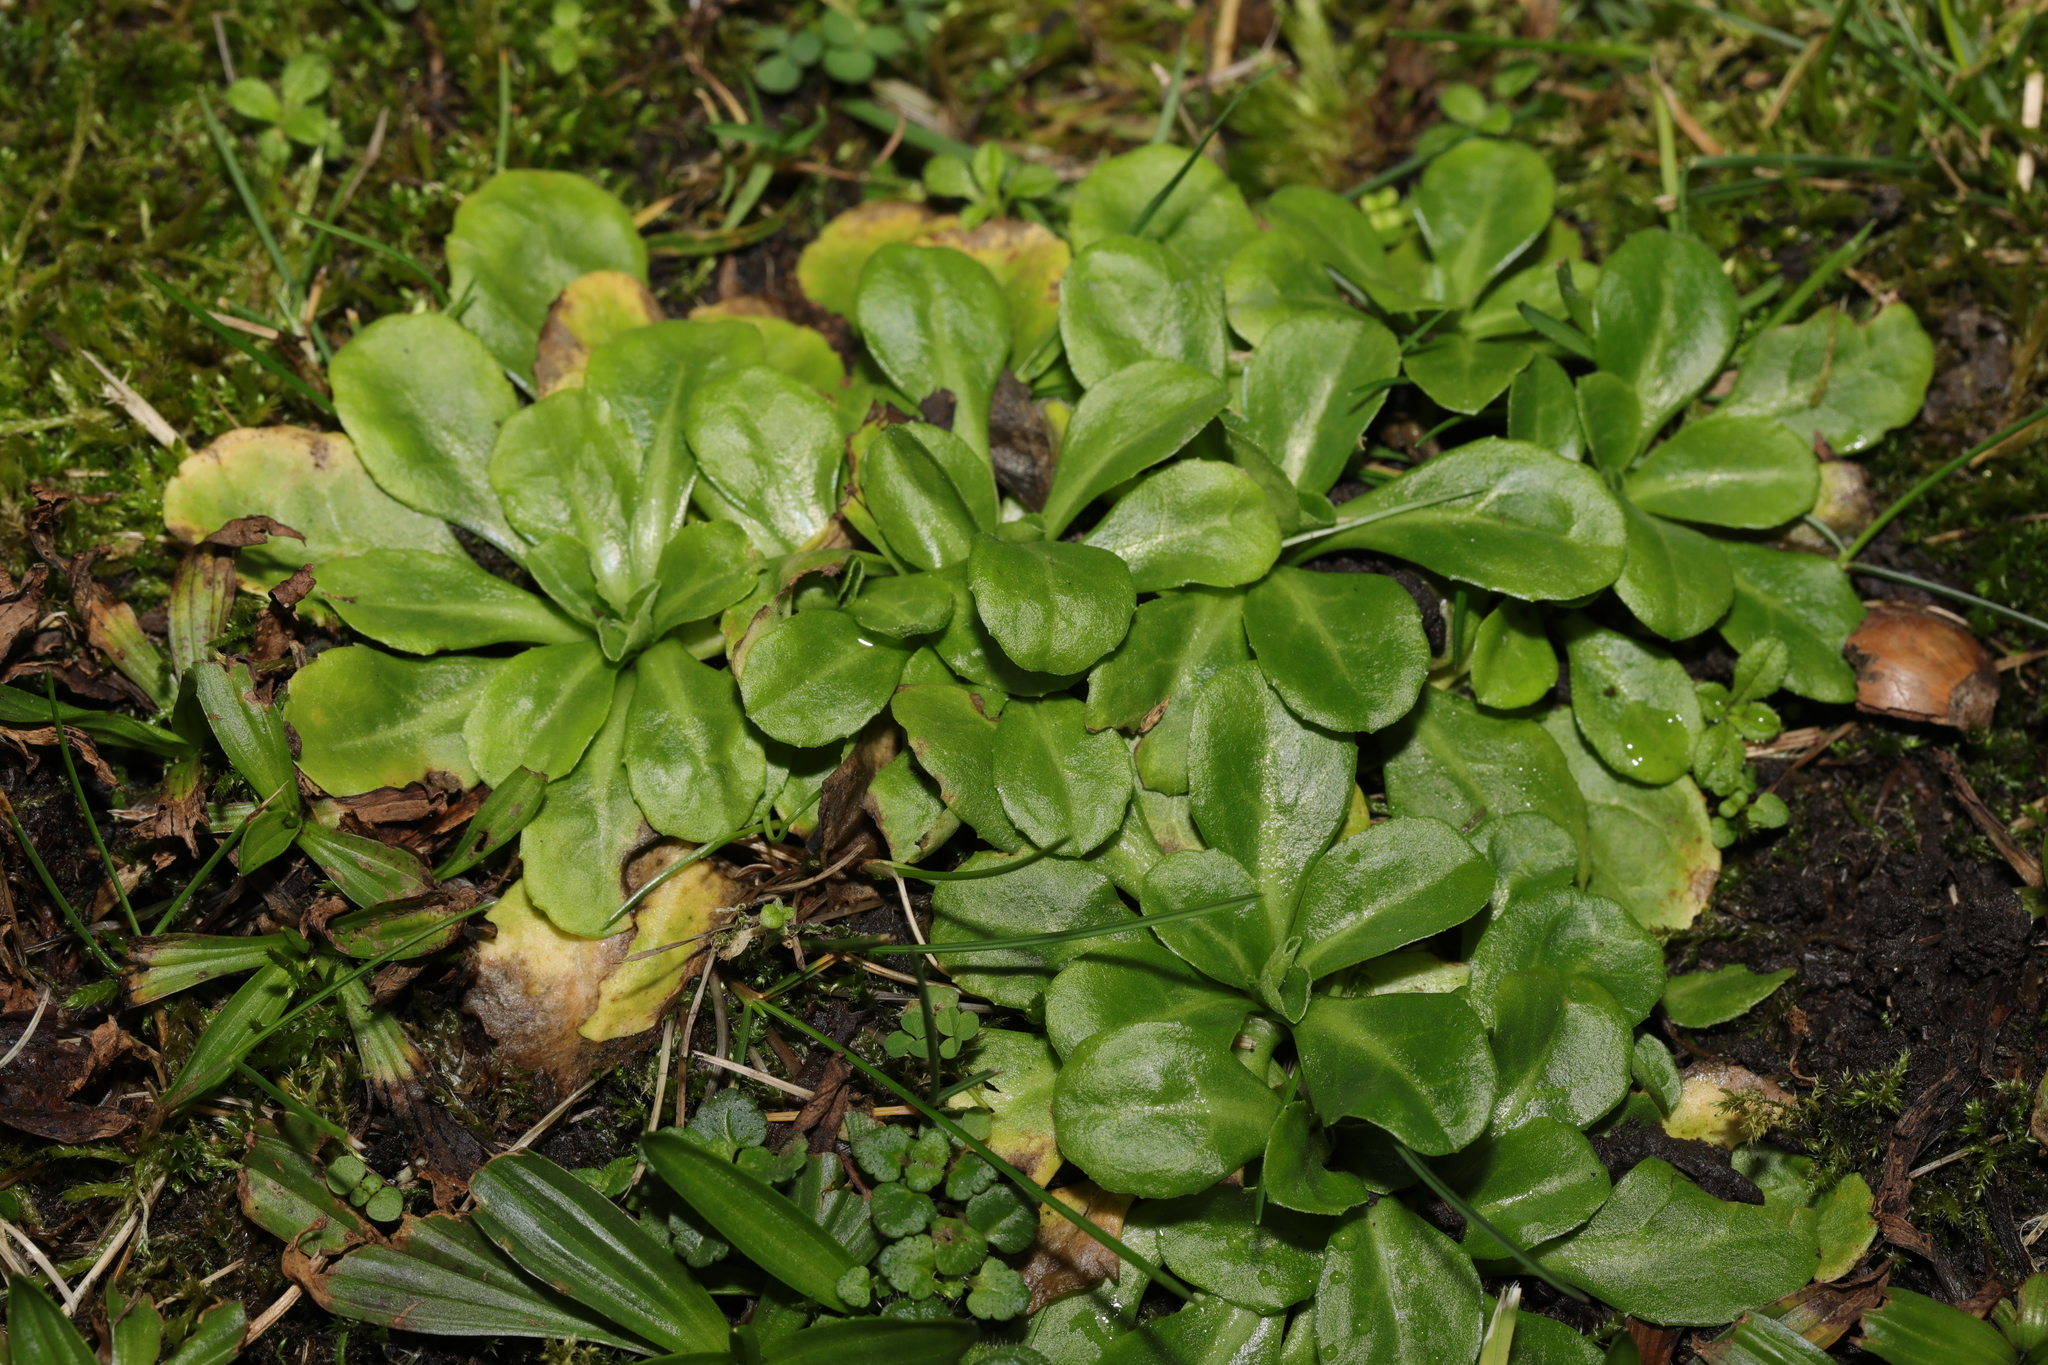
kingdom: Plantae
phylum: Tracheophyta
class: Magnoliopsida
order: Asterales
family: Asteraceae
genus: Bellis
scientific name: Bellis perennis
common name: Lawndaisy
